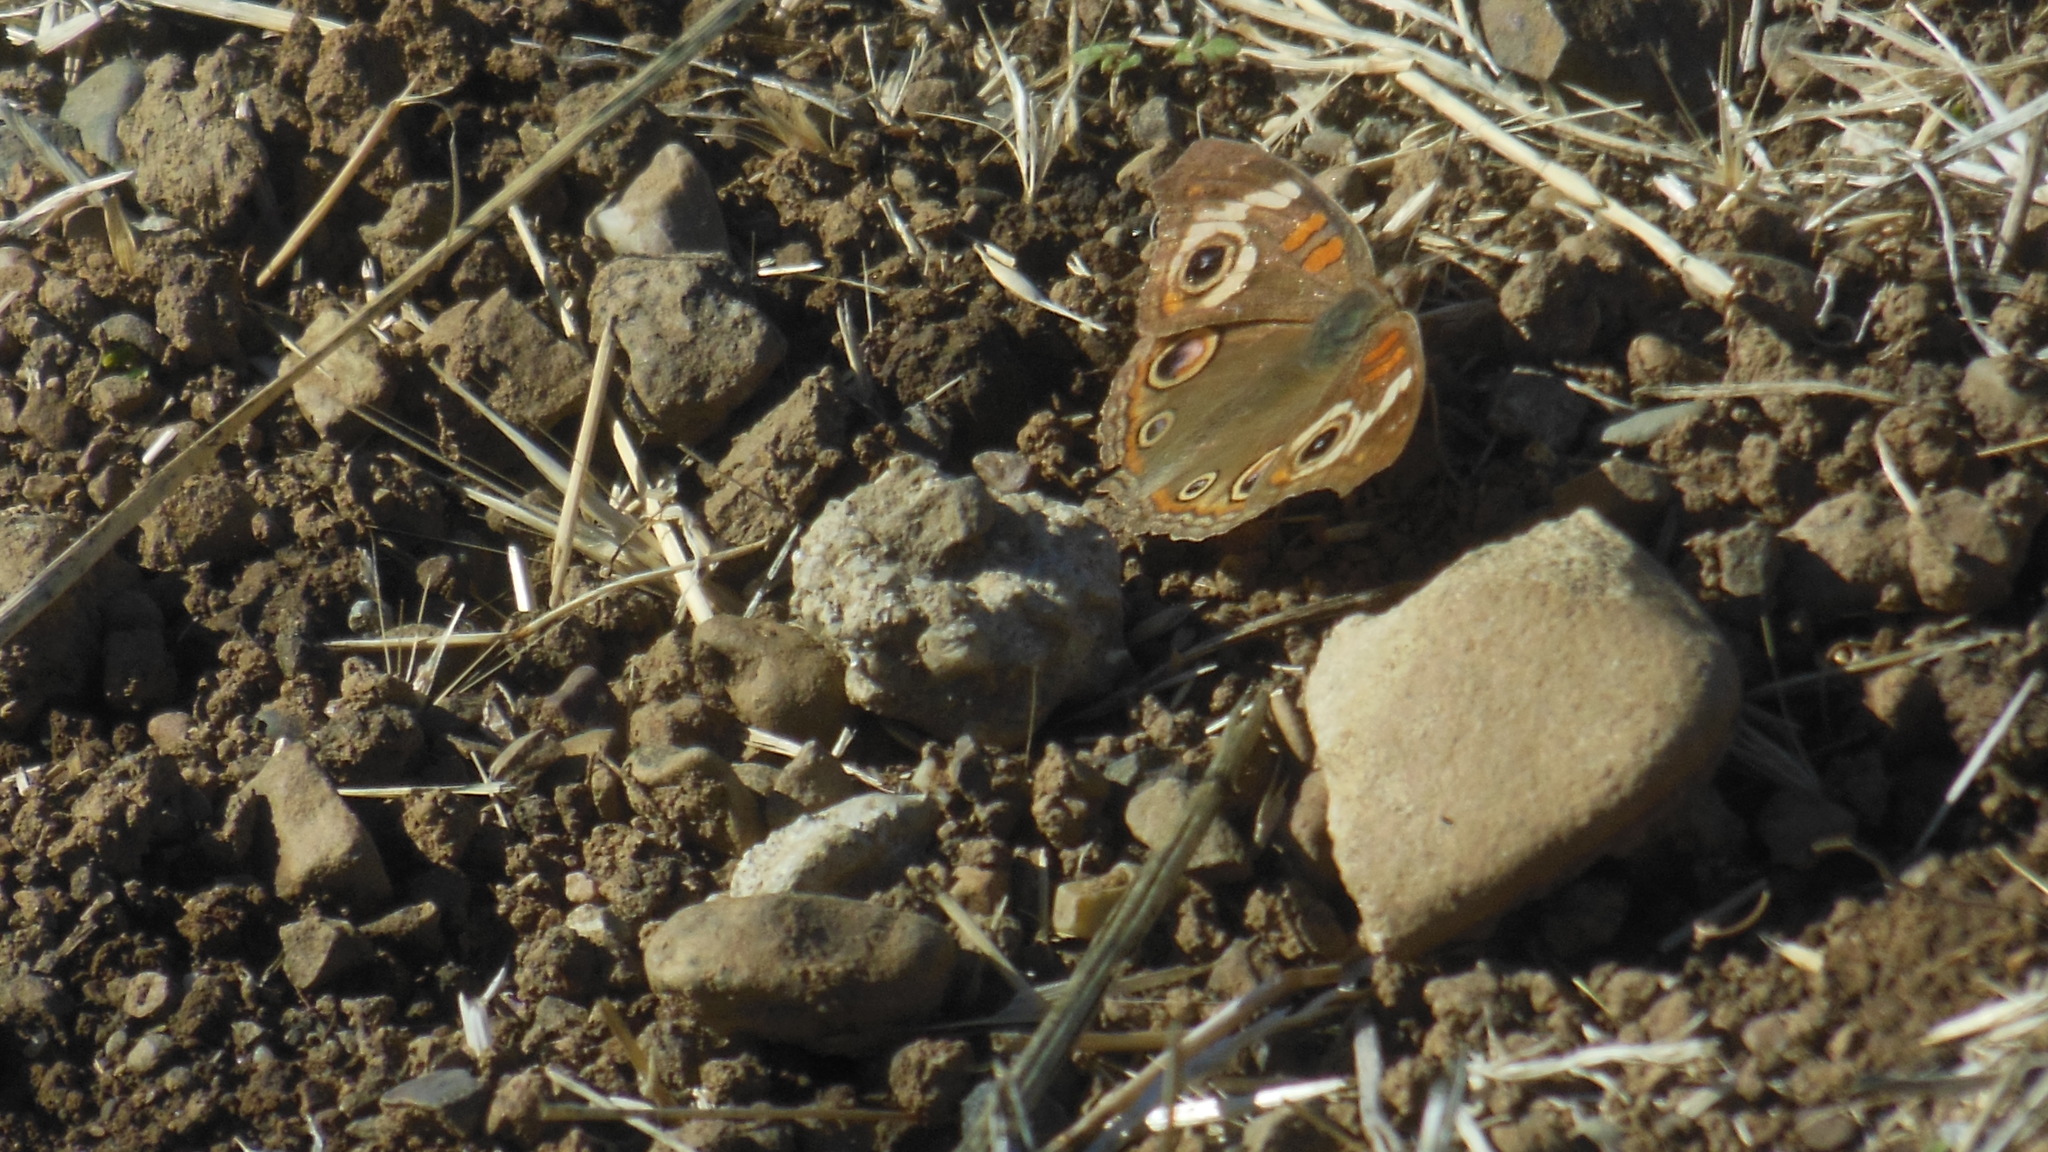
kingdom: Animalia
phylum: Arthropoda
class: Insecta
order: Lepidoptera
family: Nymphalidae
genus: Junonia
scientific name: Junonia grisea
